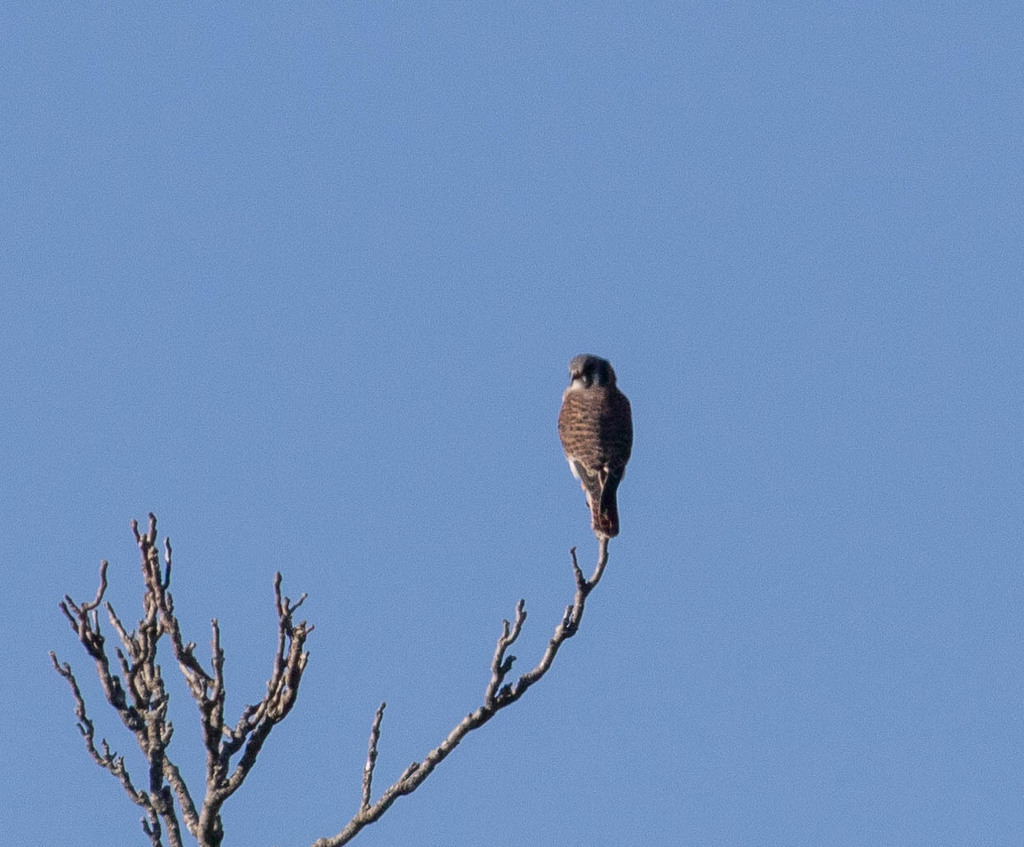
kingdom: Animalia
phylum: Chordata
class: Aves
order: Falconiformes
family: Falconidae
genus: Falco
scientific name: Falco sparverius
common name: American kestrel
